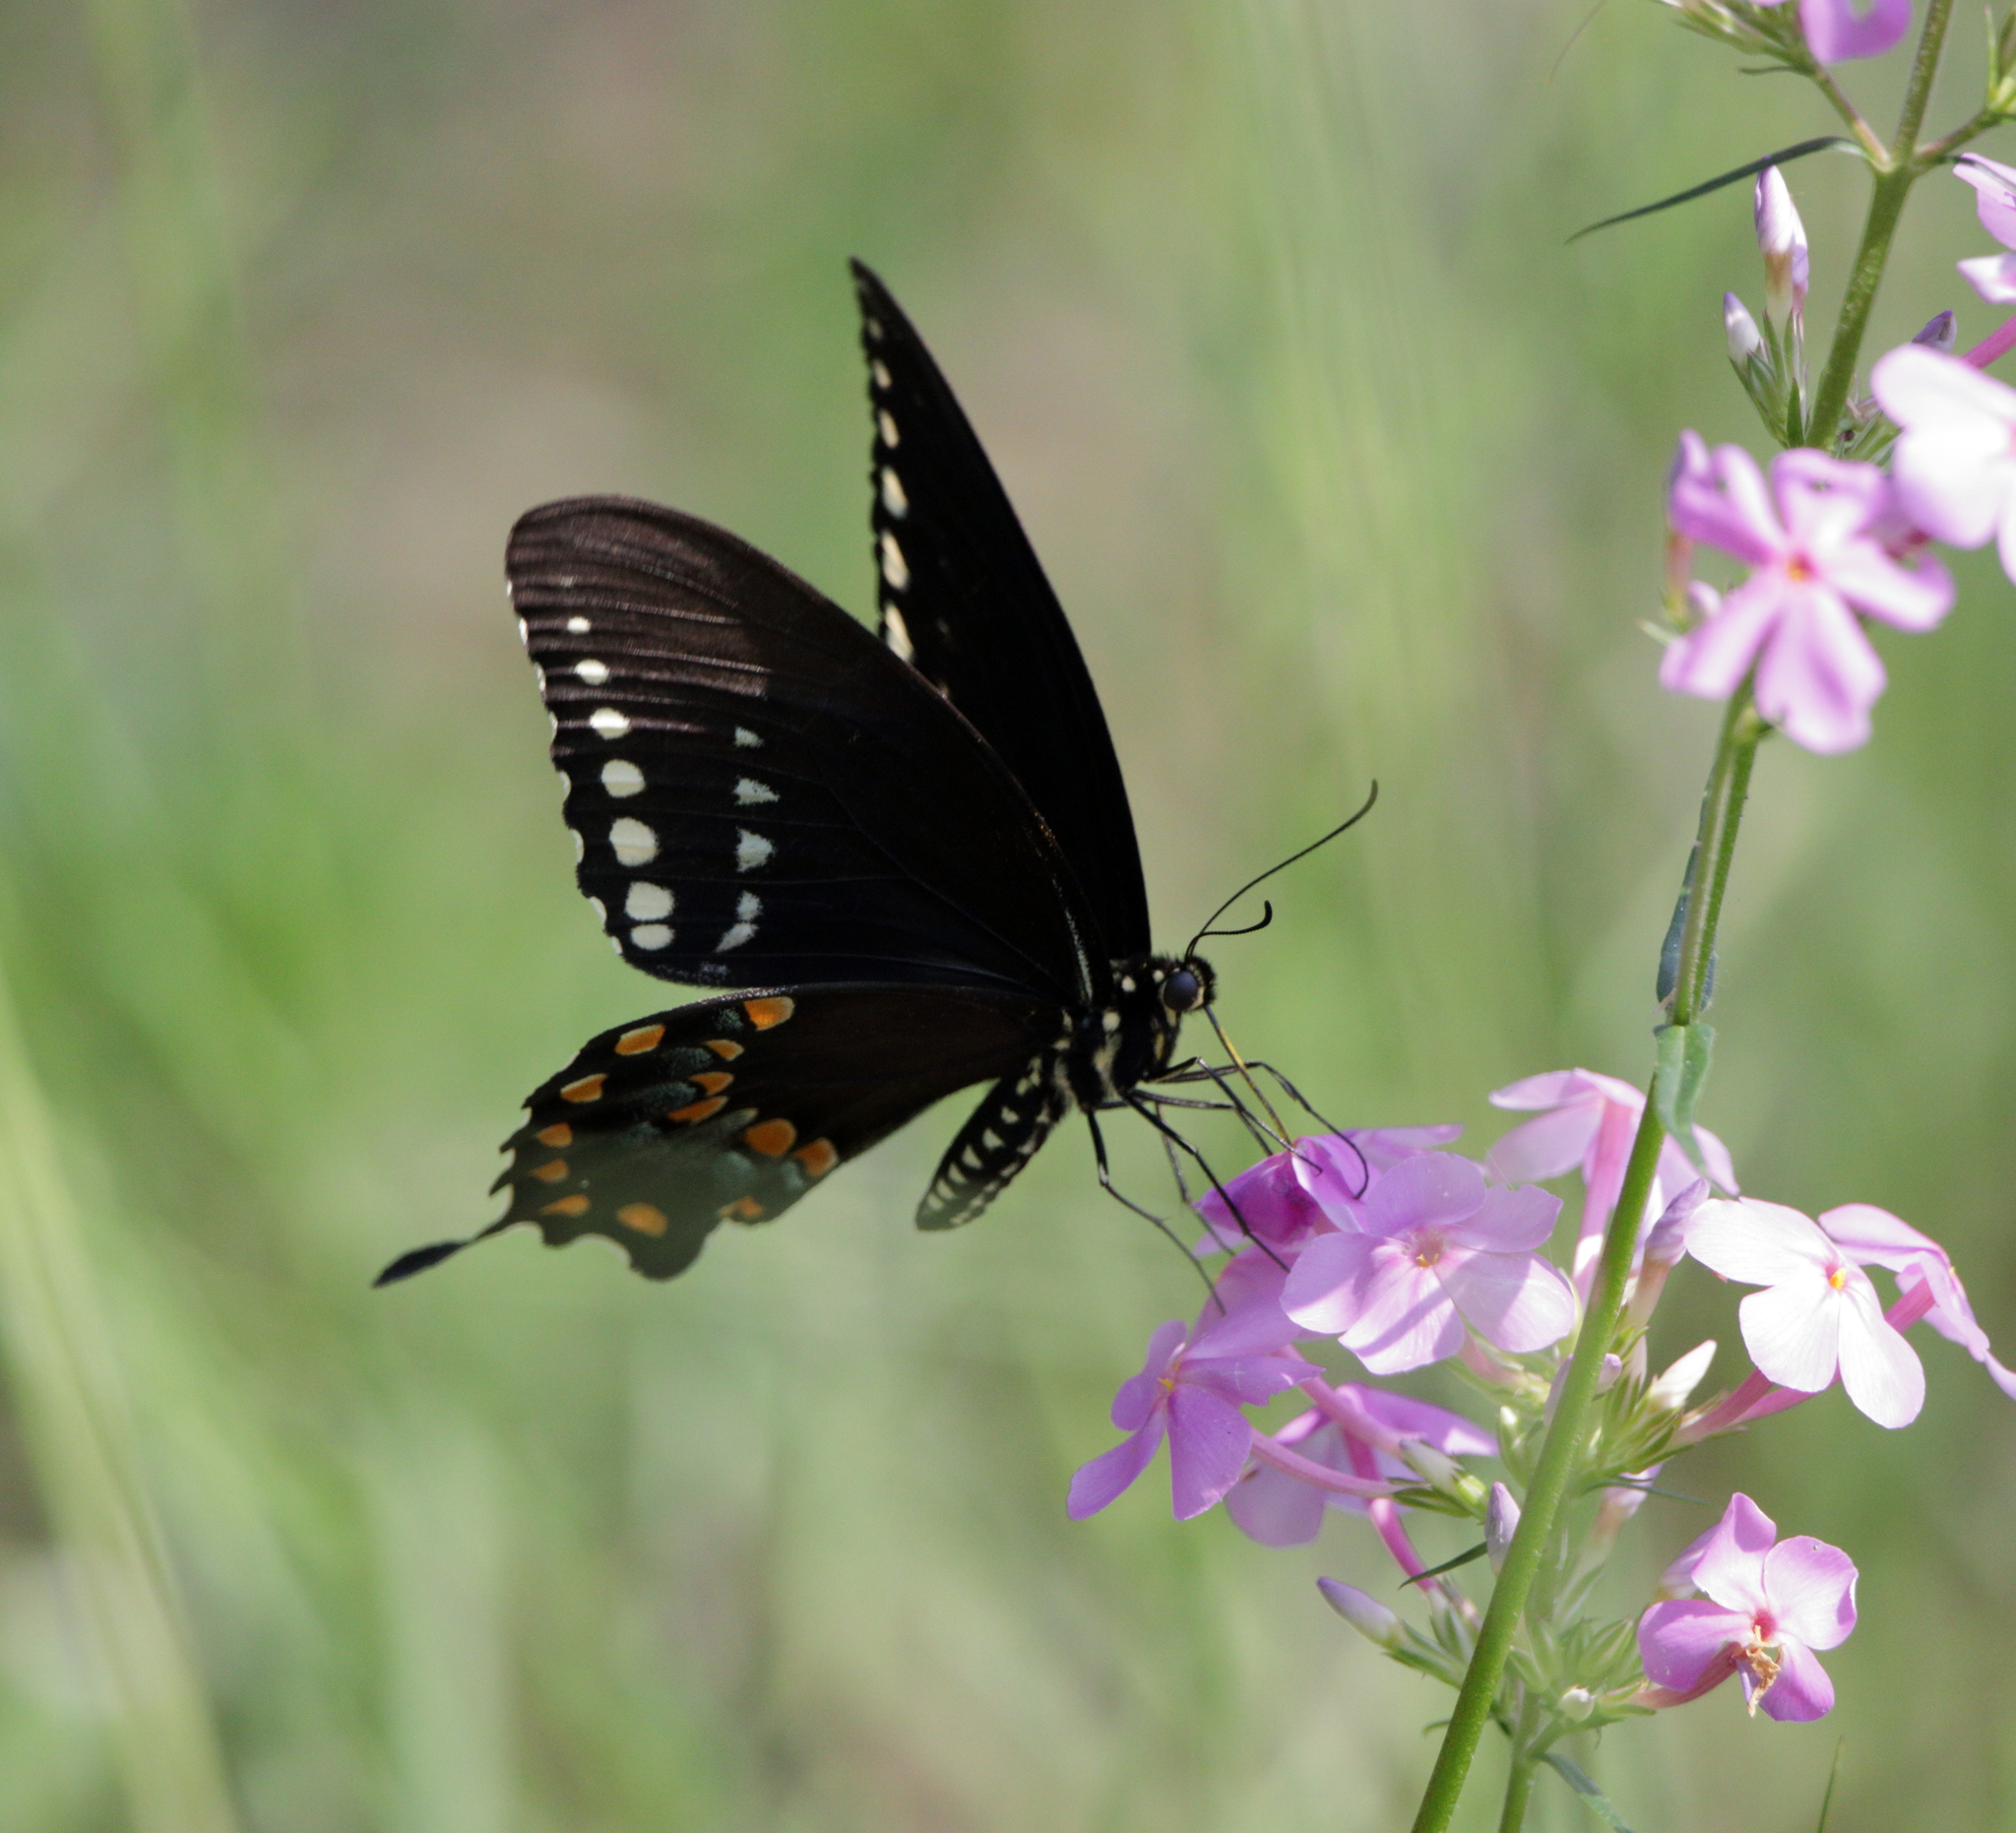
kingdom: Animalia
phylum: Arthropoda
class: Insecta
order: Lepidoptera
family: Papilionidae
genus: Papilio
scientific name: Papilio troilus
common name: Spicebush swallowtail
